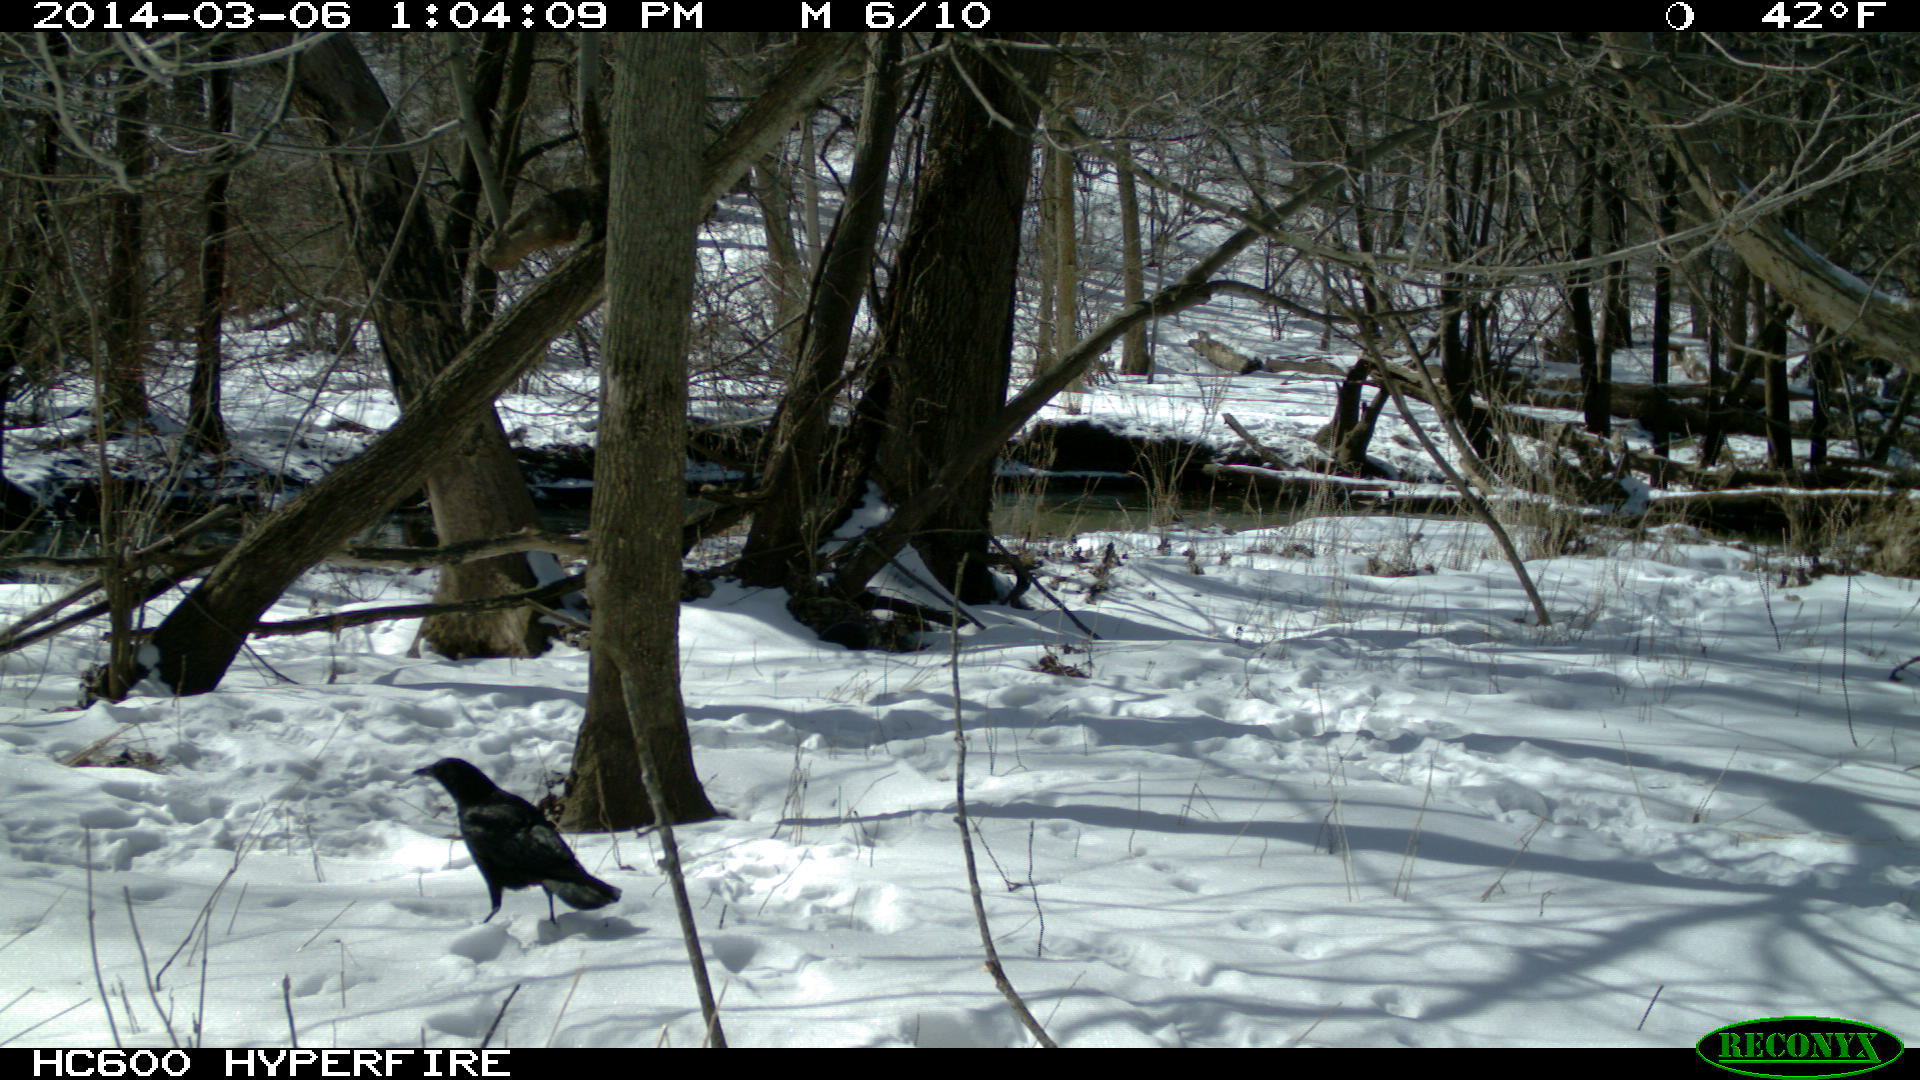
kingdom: Animalia
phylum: Chordata
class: Aves
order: Passeriformes
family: Corvidae
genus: Corvus
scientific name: Corvus brachyrhynchos
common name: American crow
